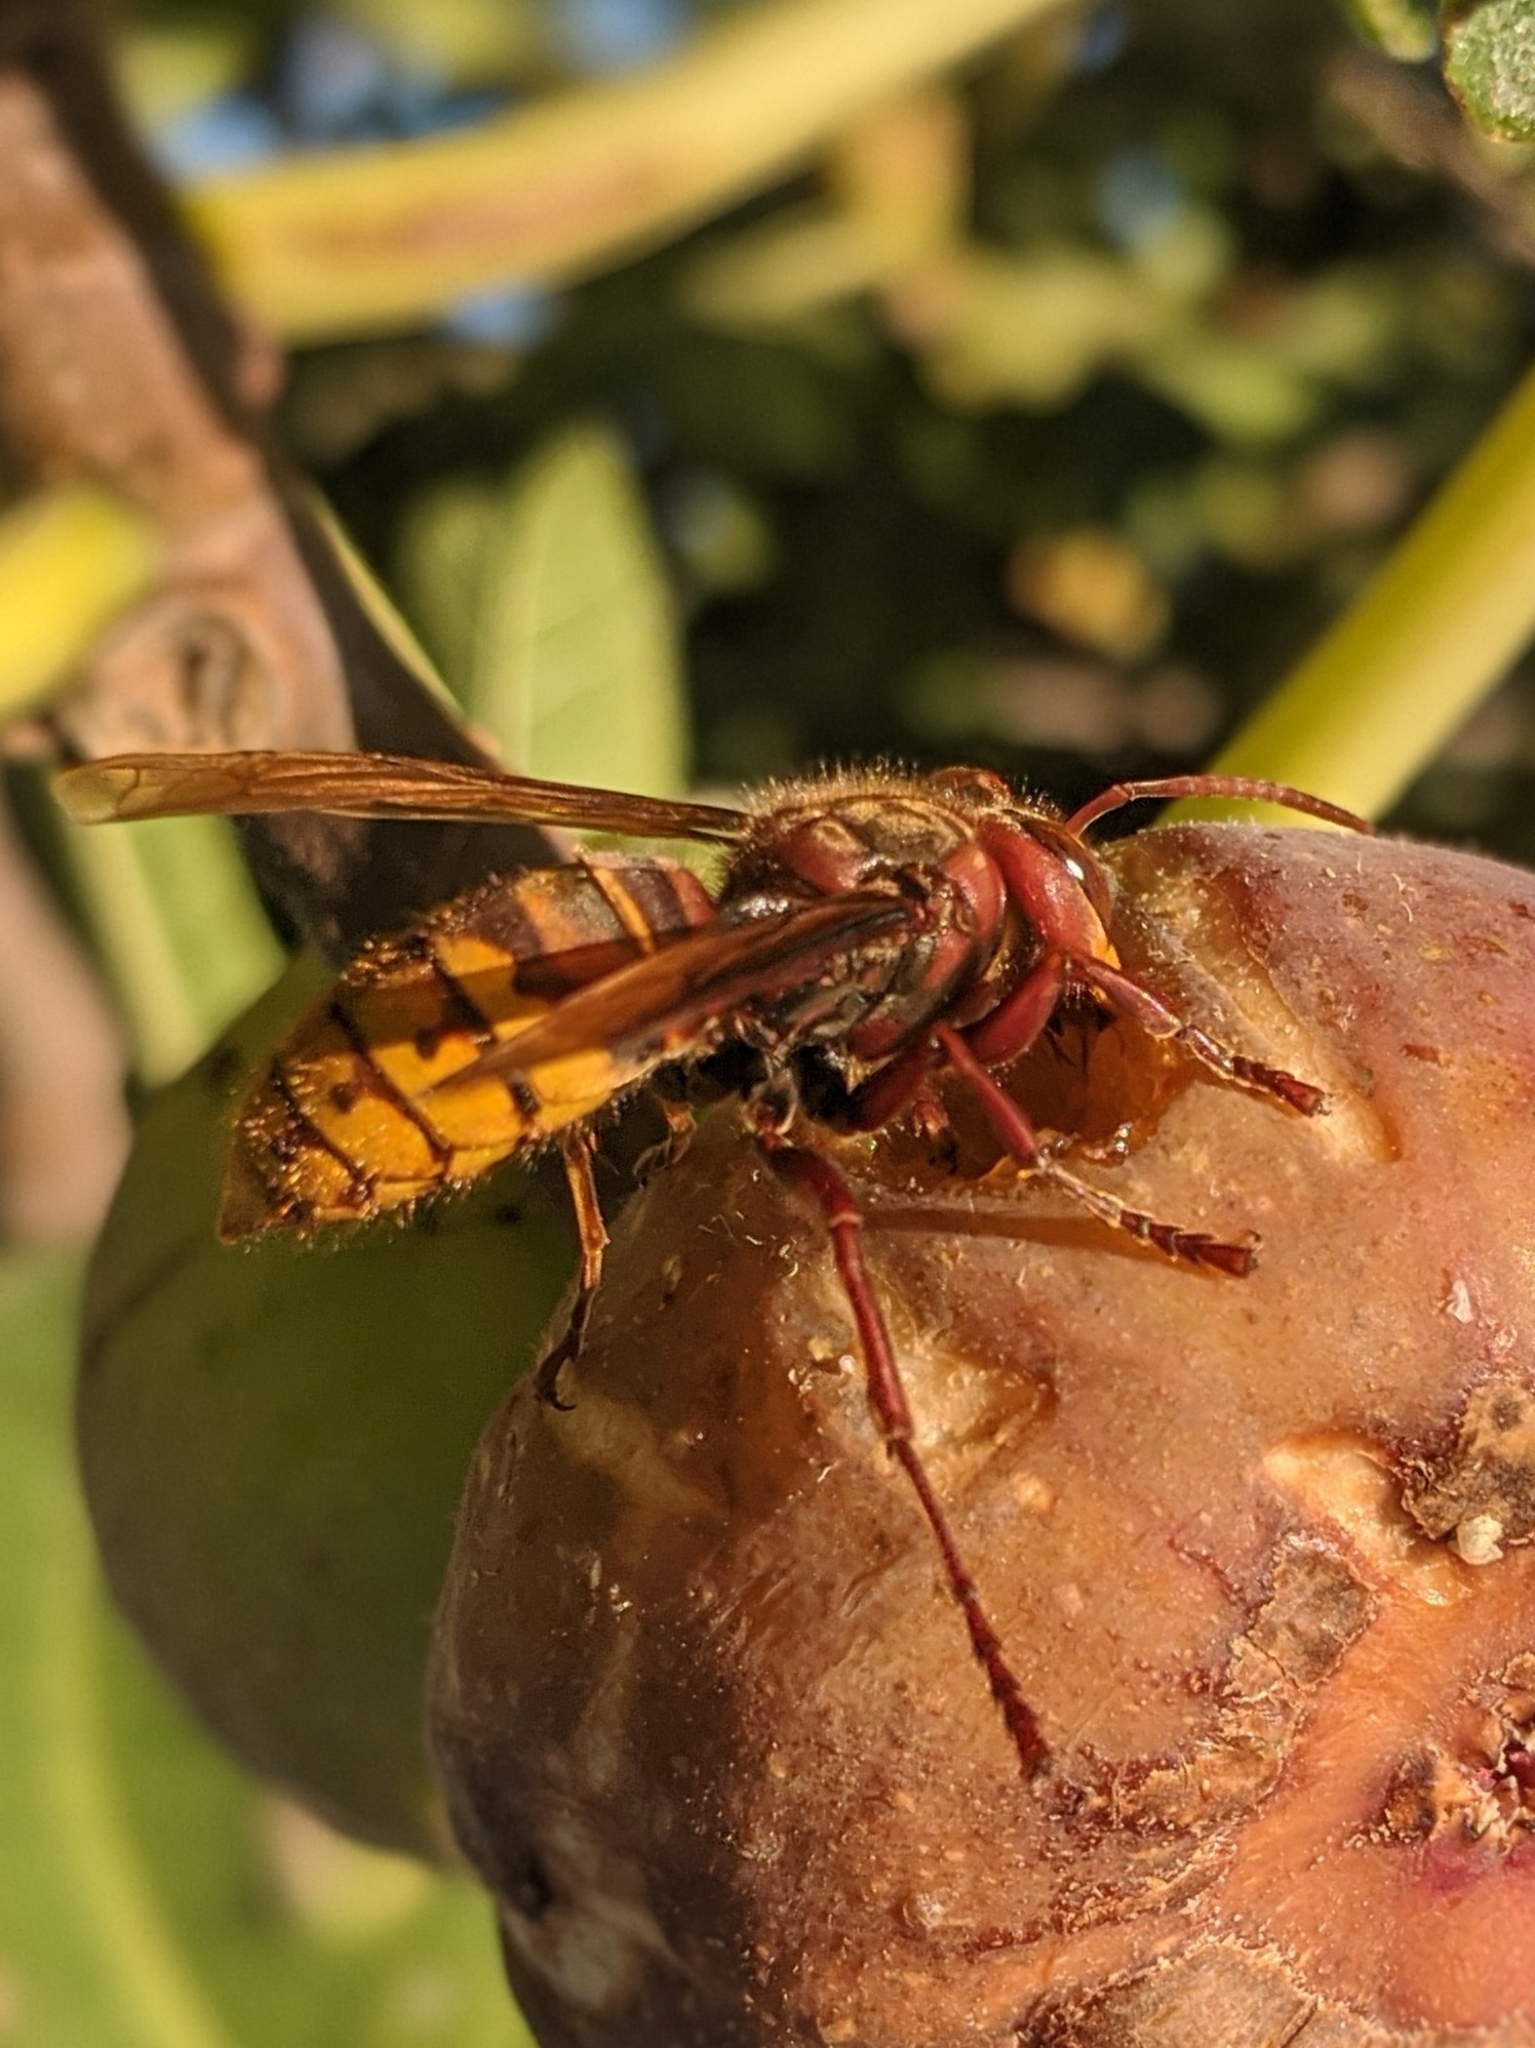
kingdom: Animalia
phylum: Arthropoda
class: Insecta
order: Hymenoptera
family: Vespidae
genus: Vespa
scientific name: Vespa crabro
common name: Hornet
